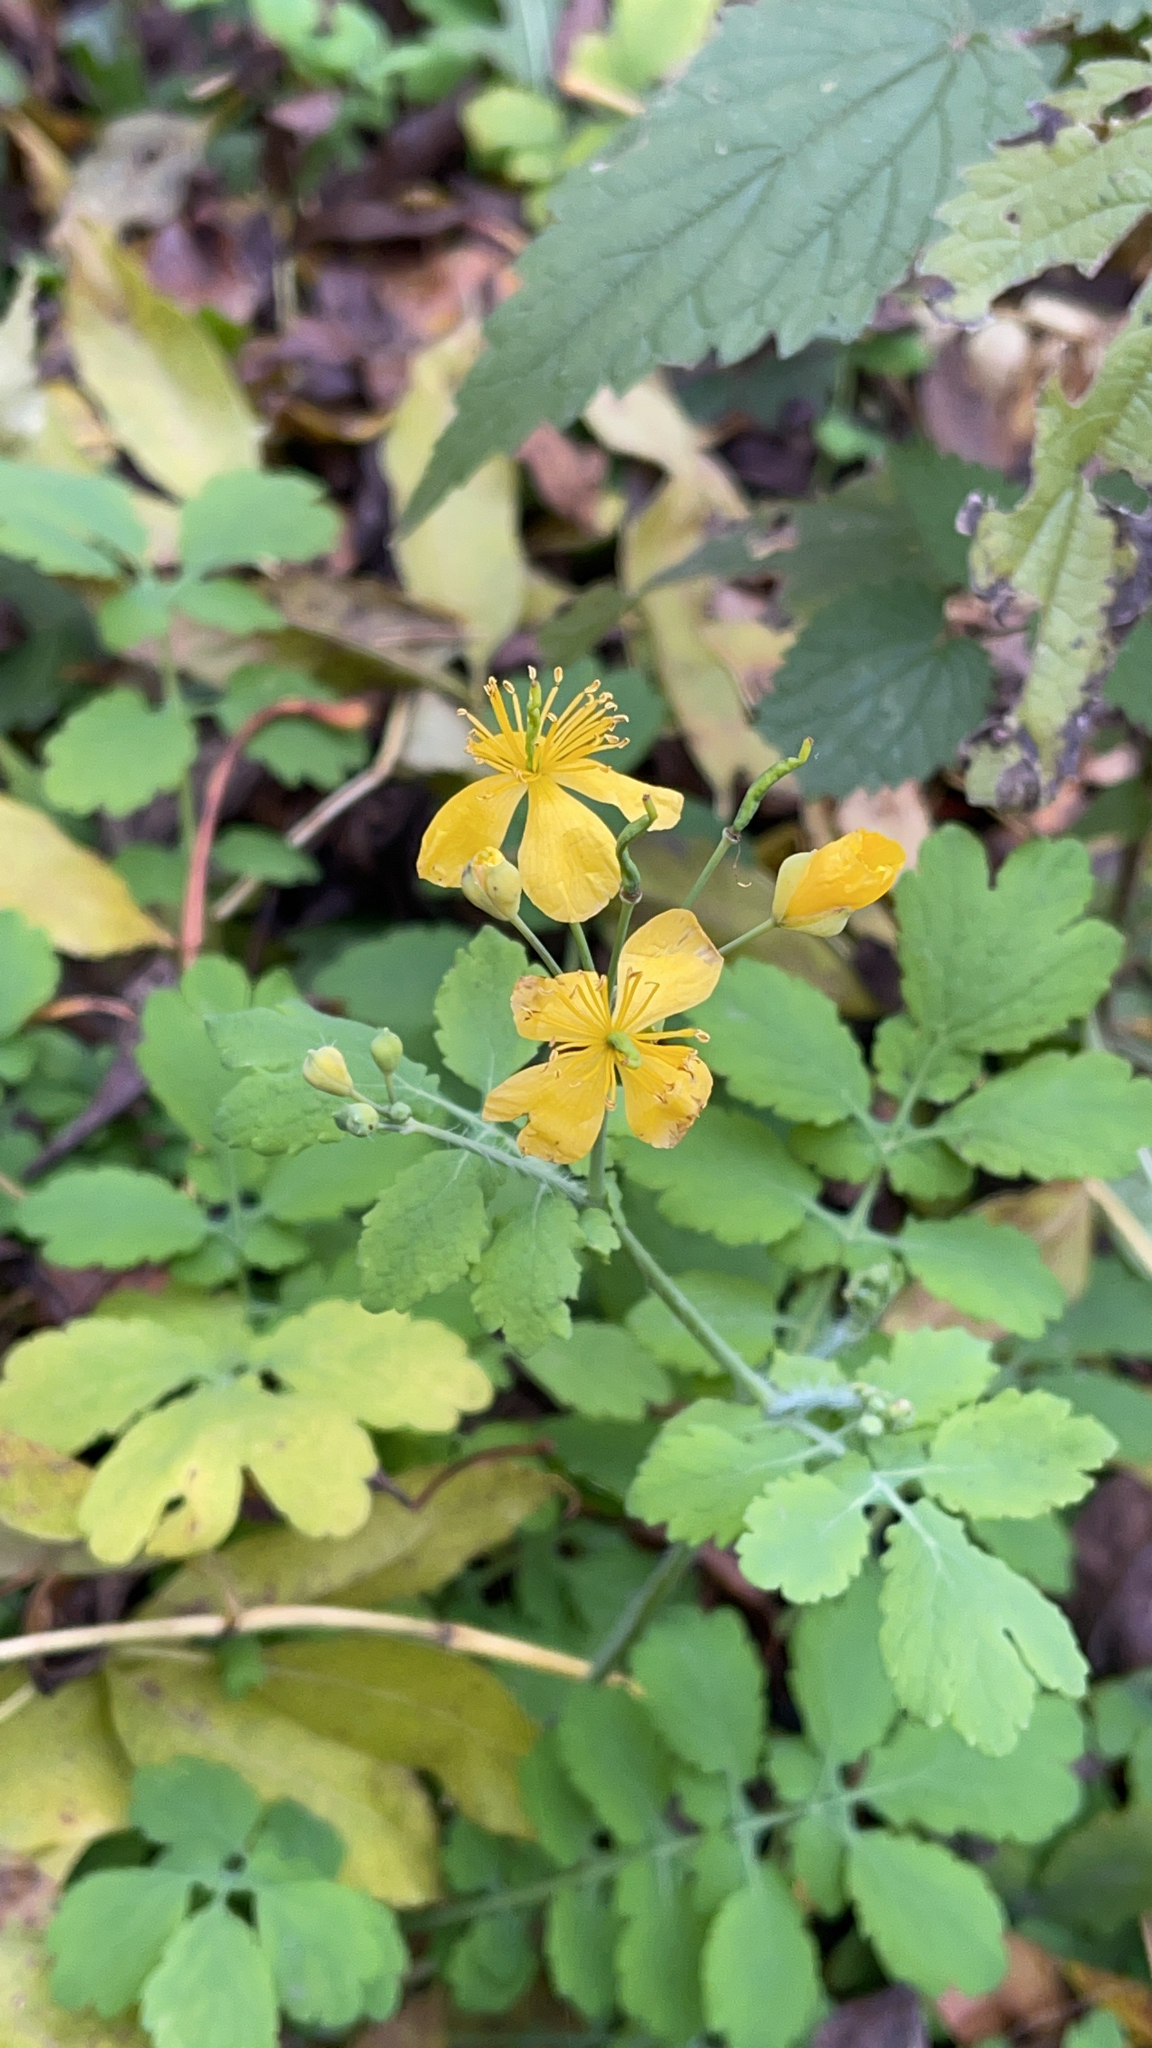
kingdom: Plantae
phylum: Tracheophyta
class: Magnoliopsida
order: Ranunculales
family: Papaveraceae
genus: Chelidonium
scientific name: Chelidonium majus
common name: Greater celandine
